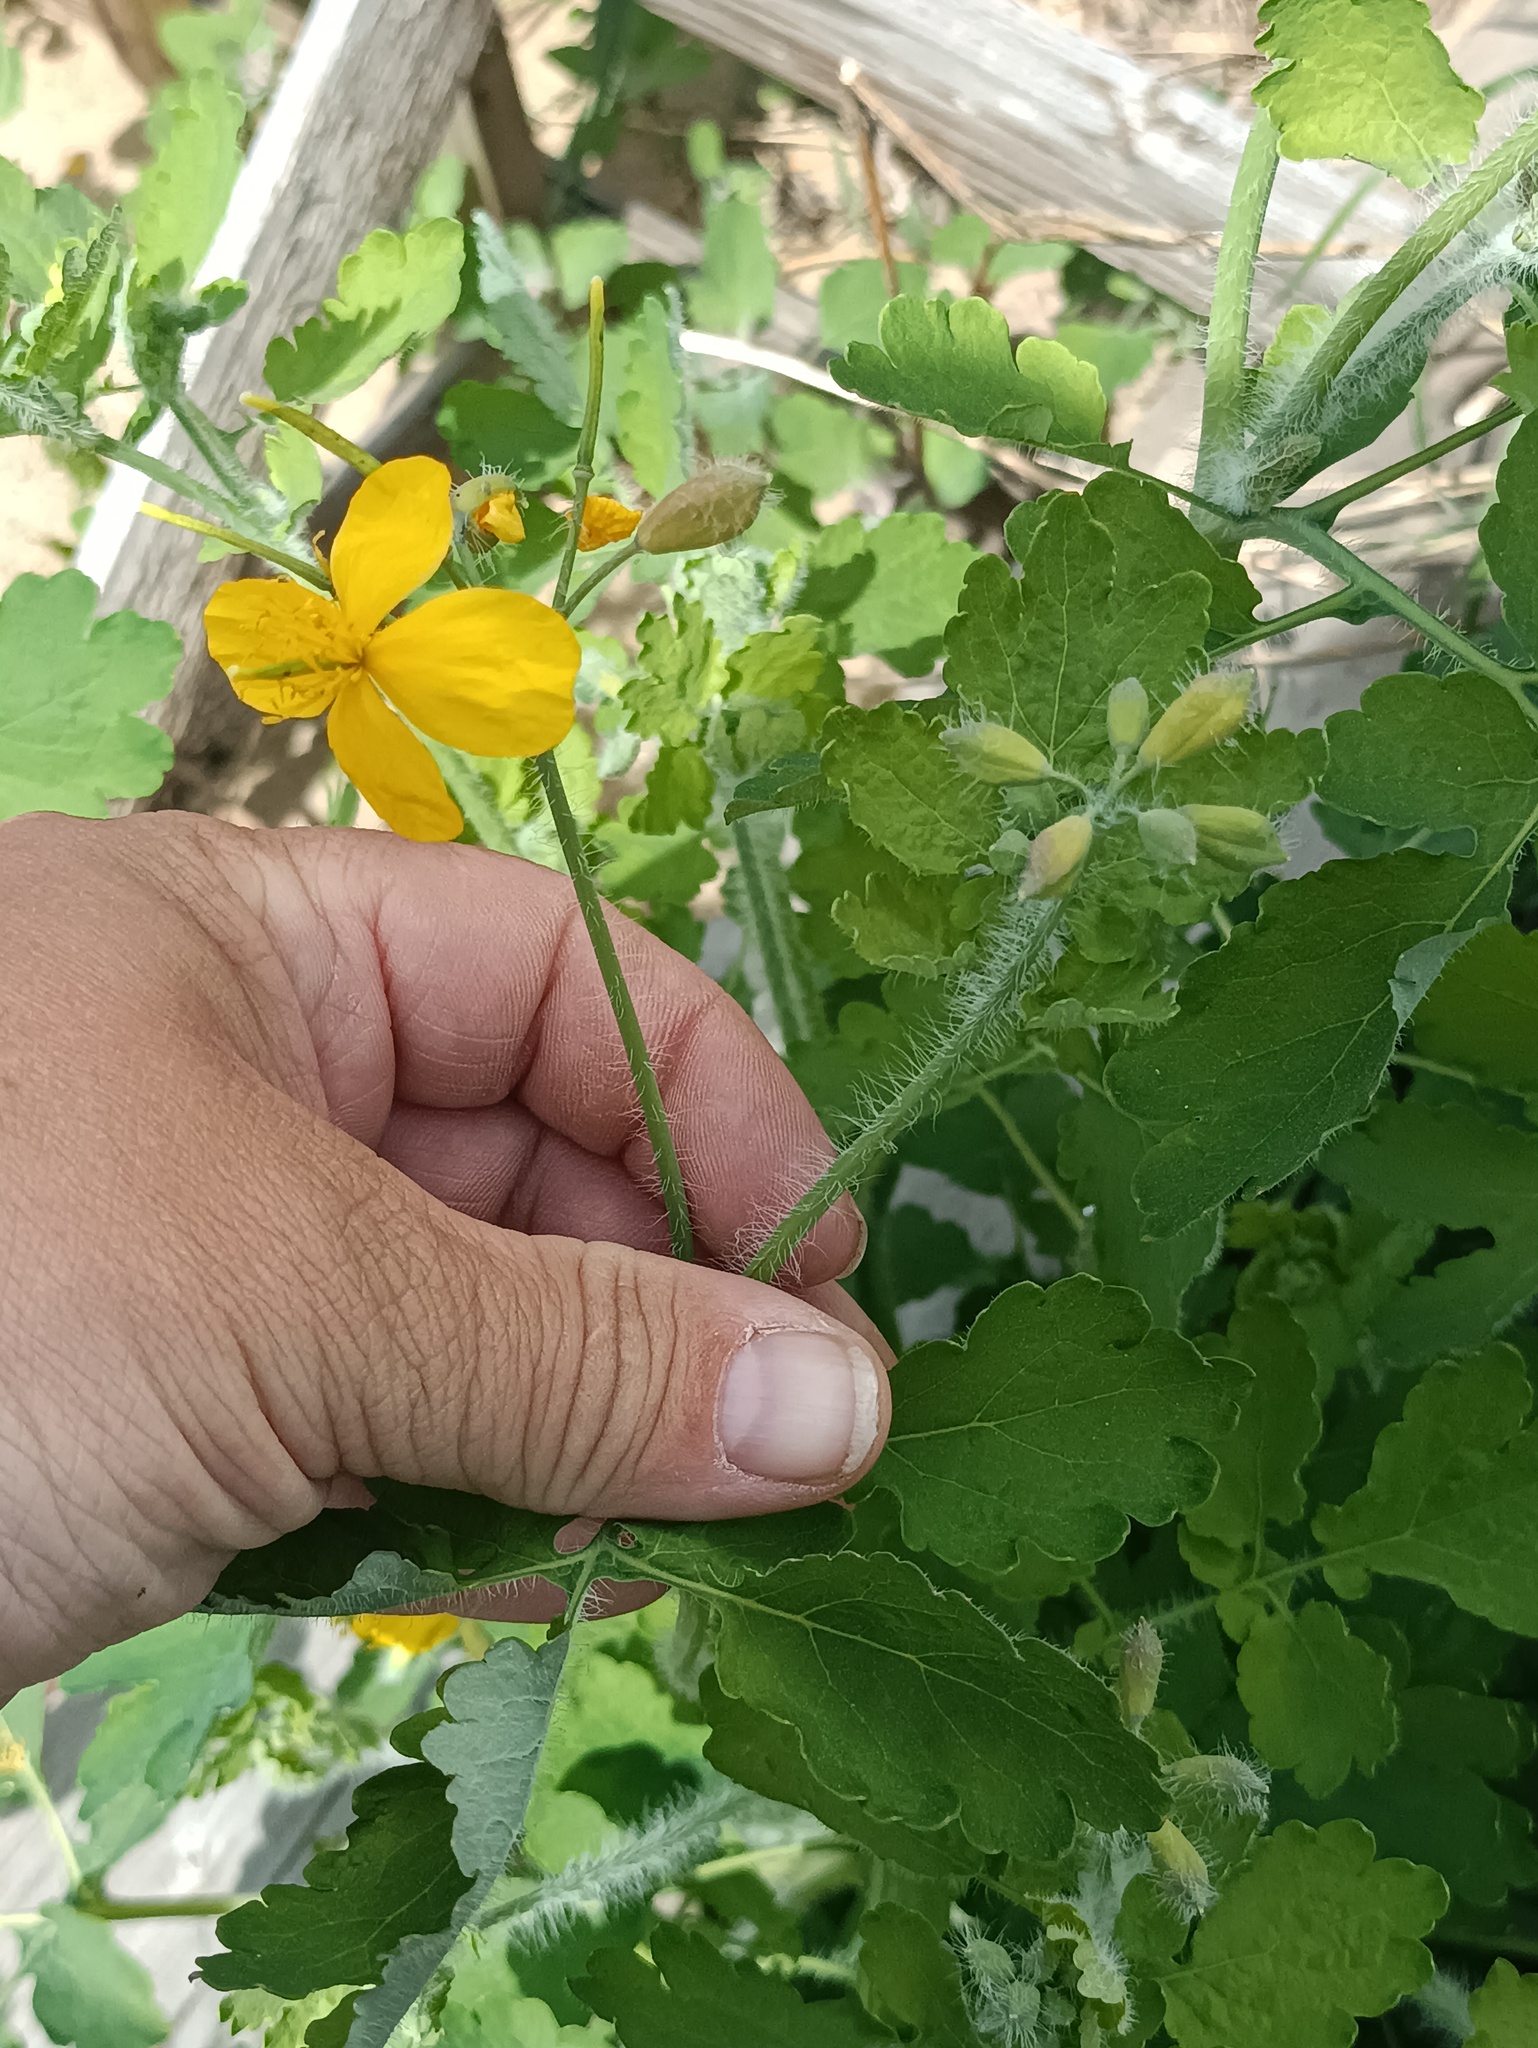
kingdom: Plantae
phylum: Tracheophyta
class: Magnoliopsida
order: Ranunculales
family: Papaveraceae
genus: Chelidonium
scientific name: Chelidonium majus
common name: Greater celandine
